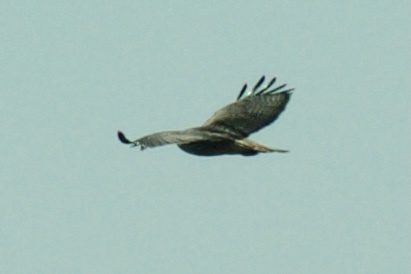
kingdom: Animalia
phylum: Chordata
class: Aves
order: Accipitriformes
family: Accipitridae
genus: Buteo
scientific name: Buteo jamaicensis
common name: Red-tailed hawk
